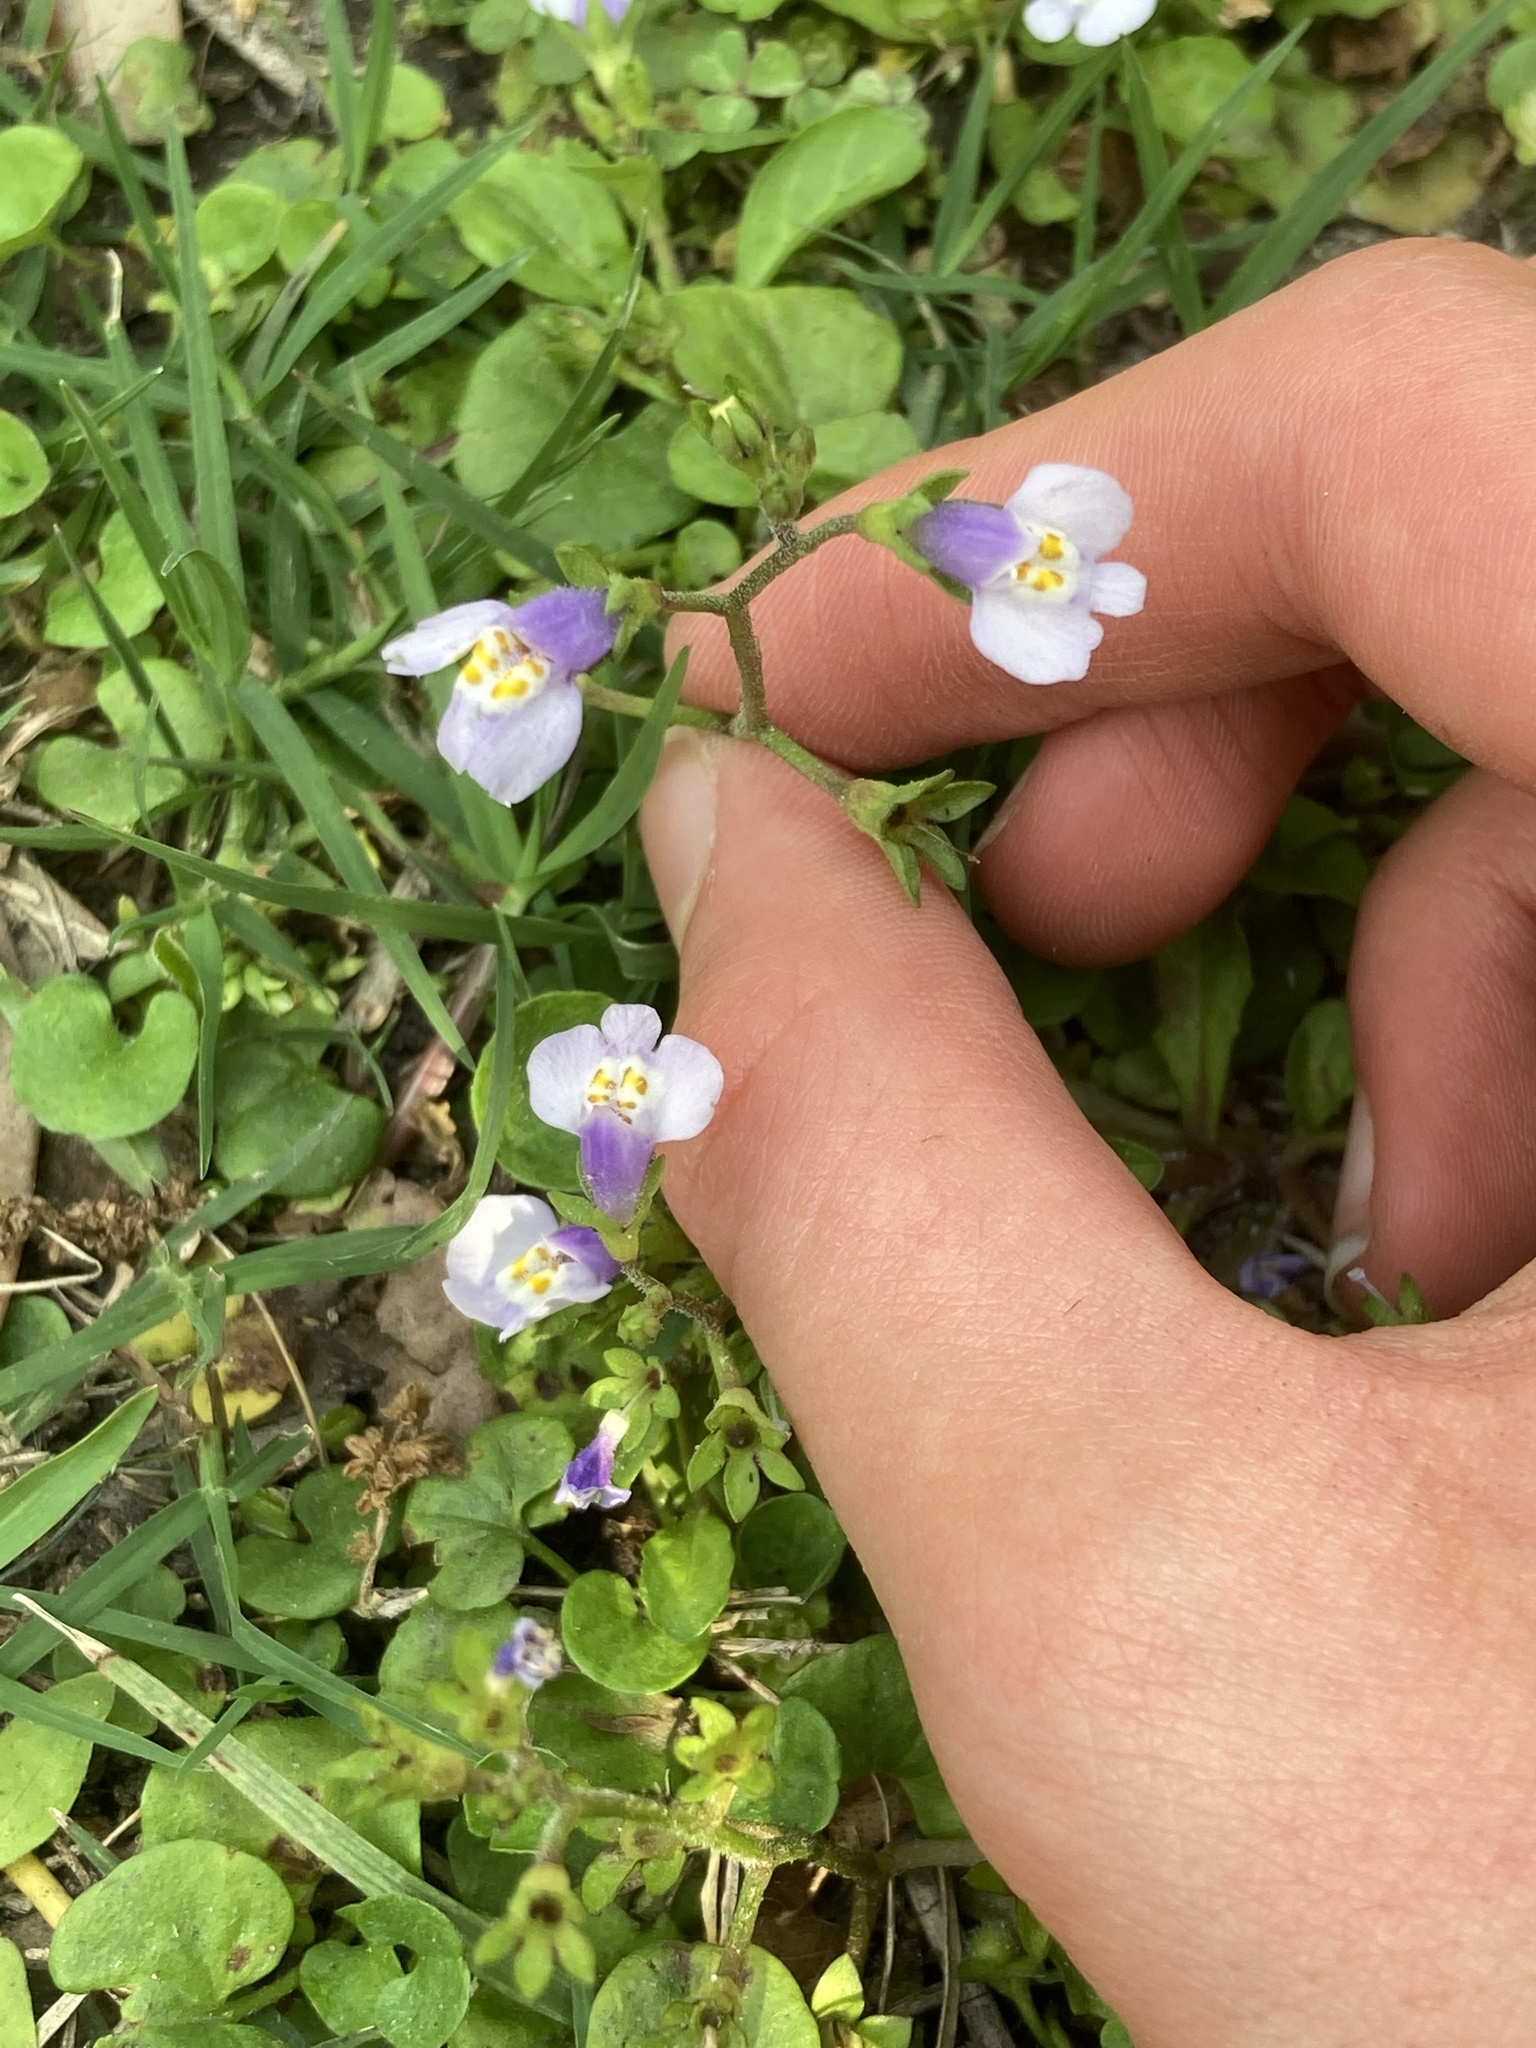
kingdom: Plantae
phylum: Tracheophyta
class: Magnoliopsida
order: Lamiales
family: Mazaceae
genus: Mazus
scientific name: Mazus pumilus
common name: Japanese mazus
